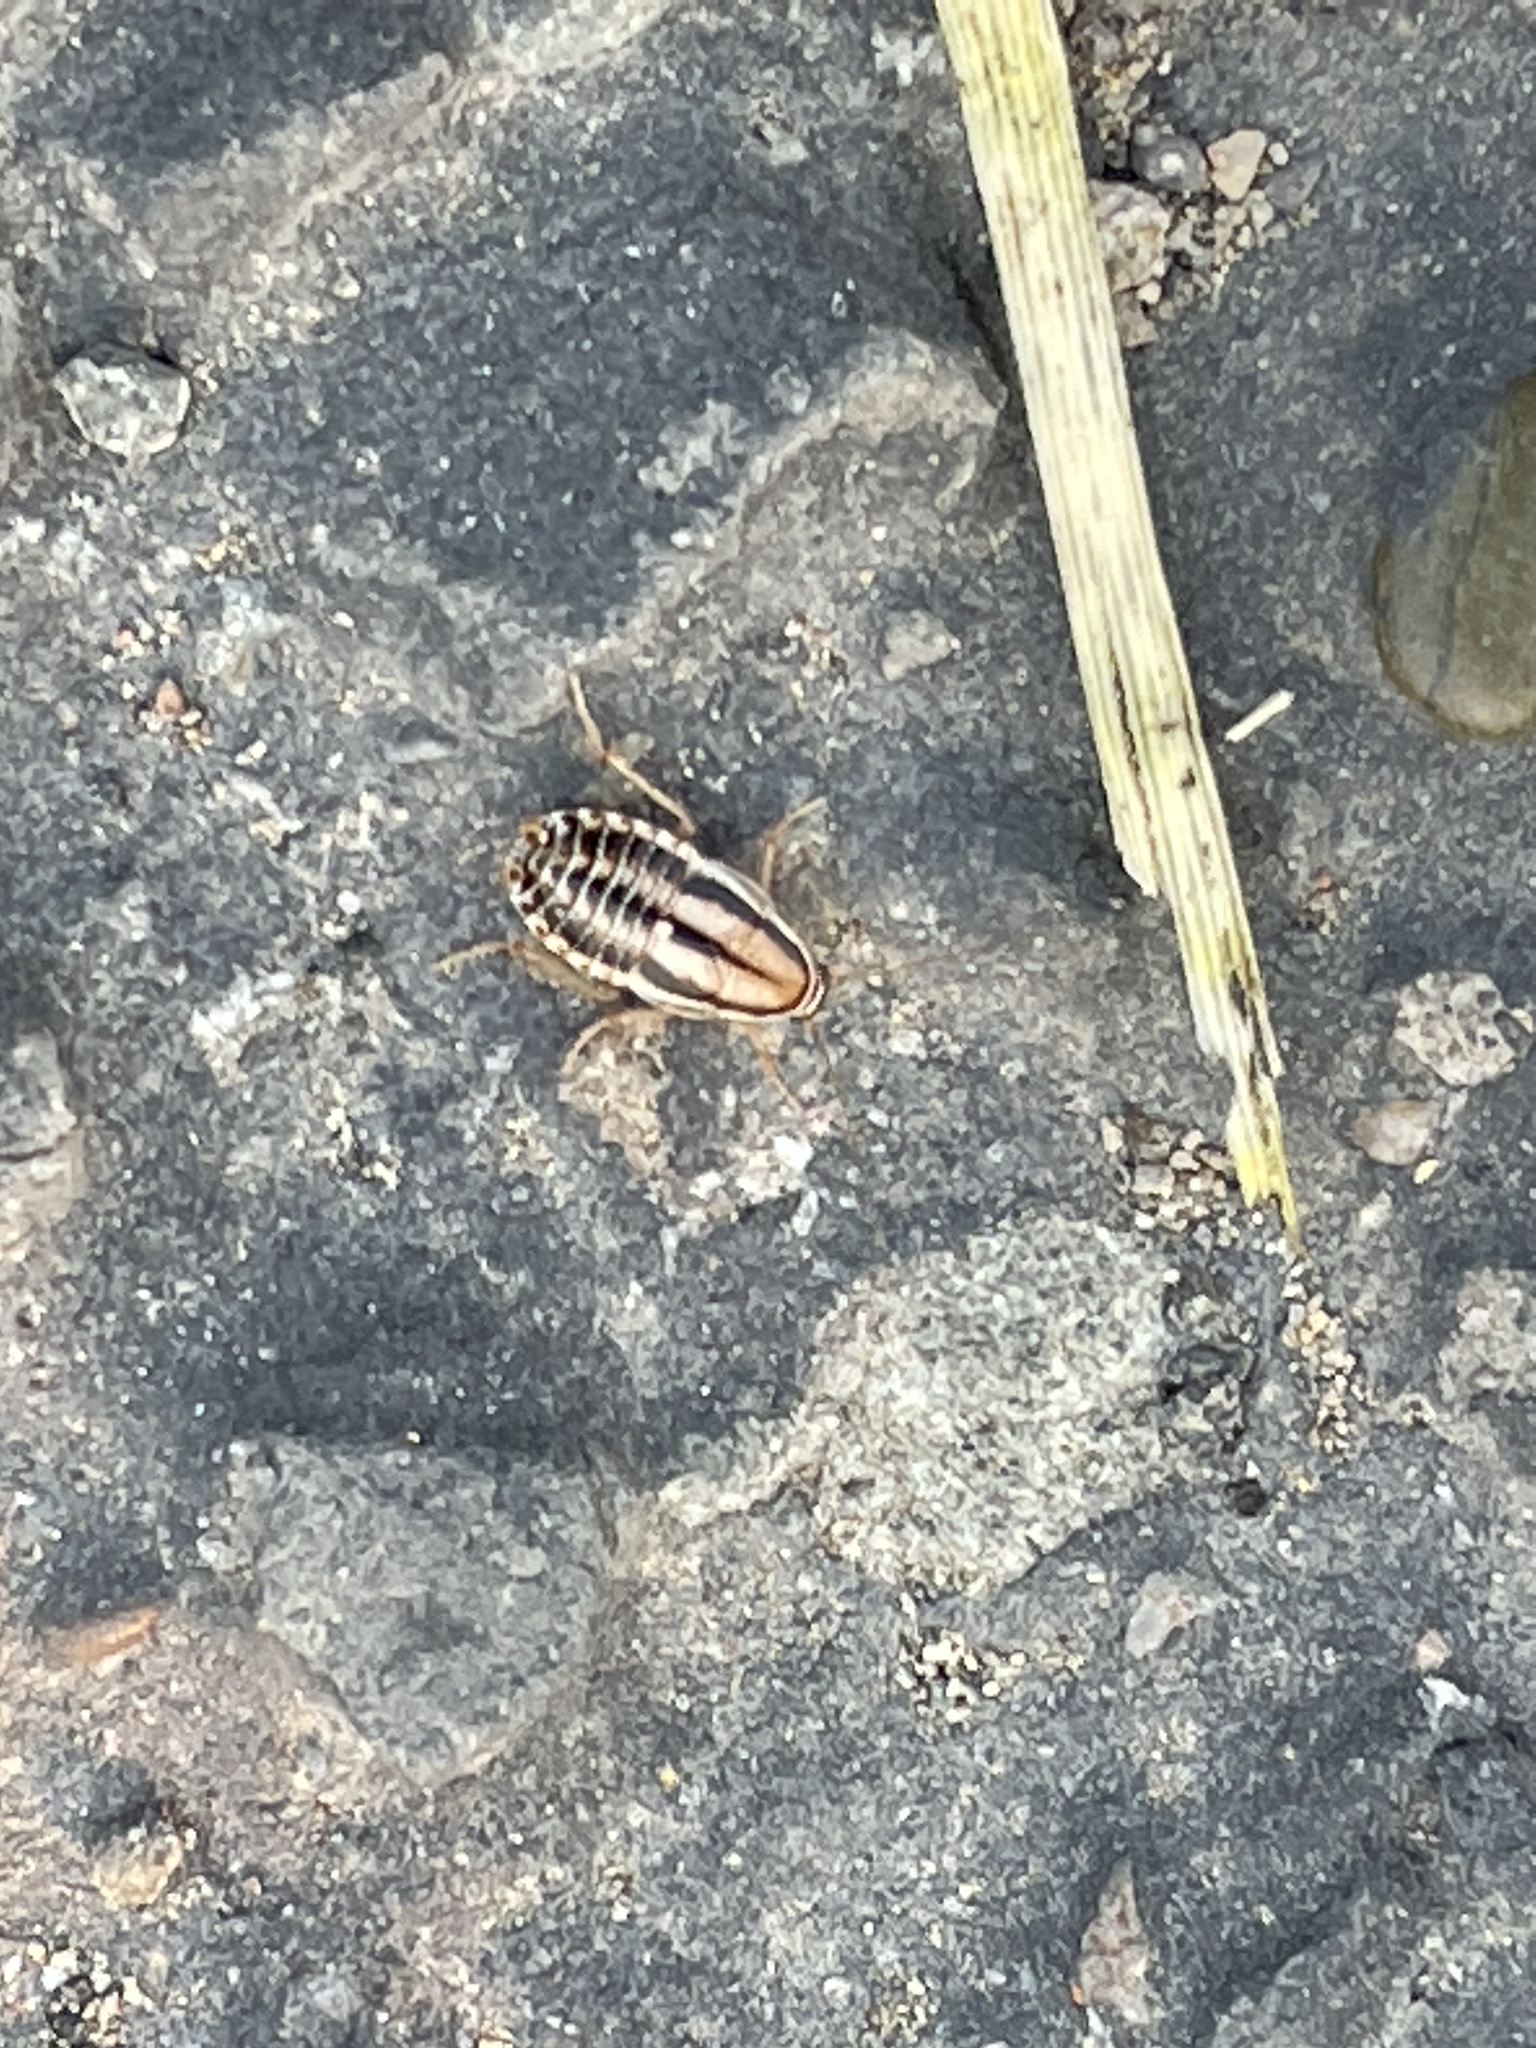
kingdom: Animalia
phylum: Arthropoda
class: Insecta
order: Blattodea
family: Ectobiidae
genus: Luridiblatta
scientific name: Luridiblatta trivittata
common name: Three-lined cockroach
